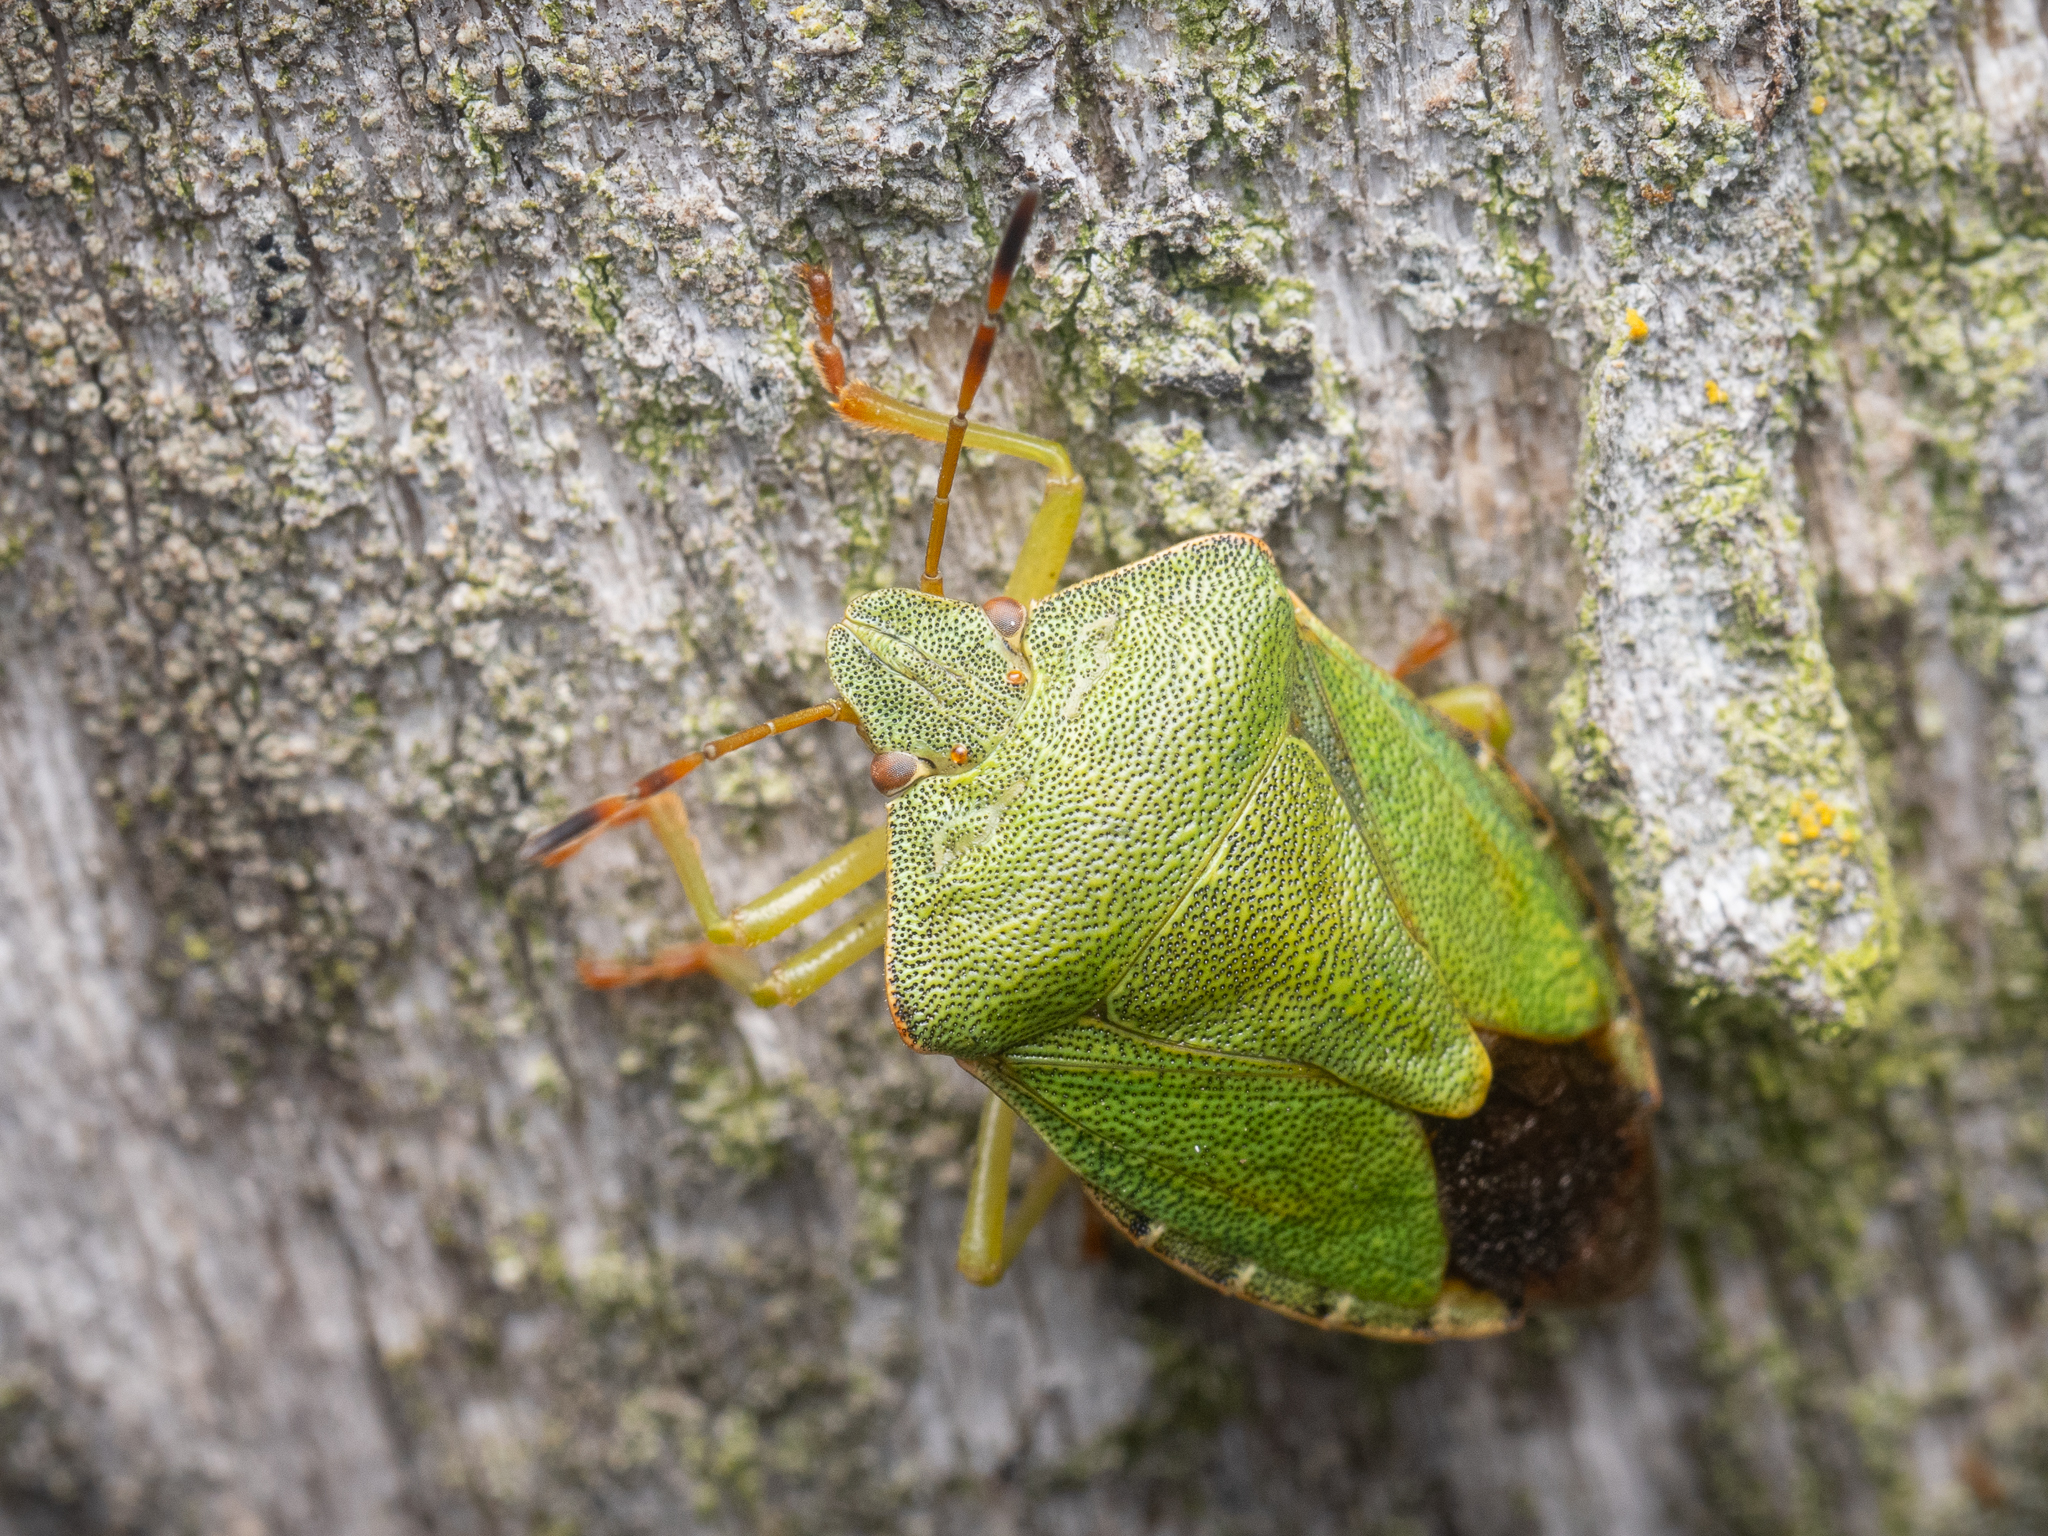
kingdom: Animalia
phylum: Arthropoda
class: Insecta
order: Hemiptera
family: Pentatomidae
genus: Palomena
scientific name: Palomena prasina
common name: Green shieldbug
